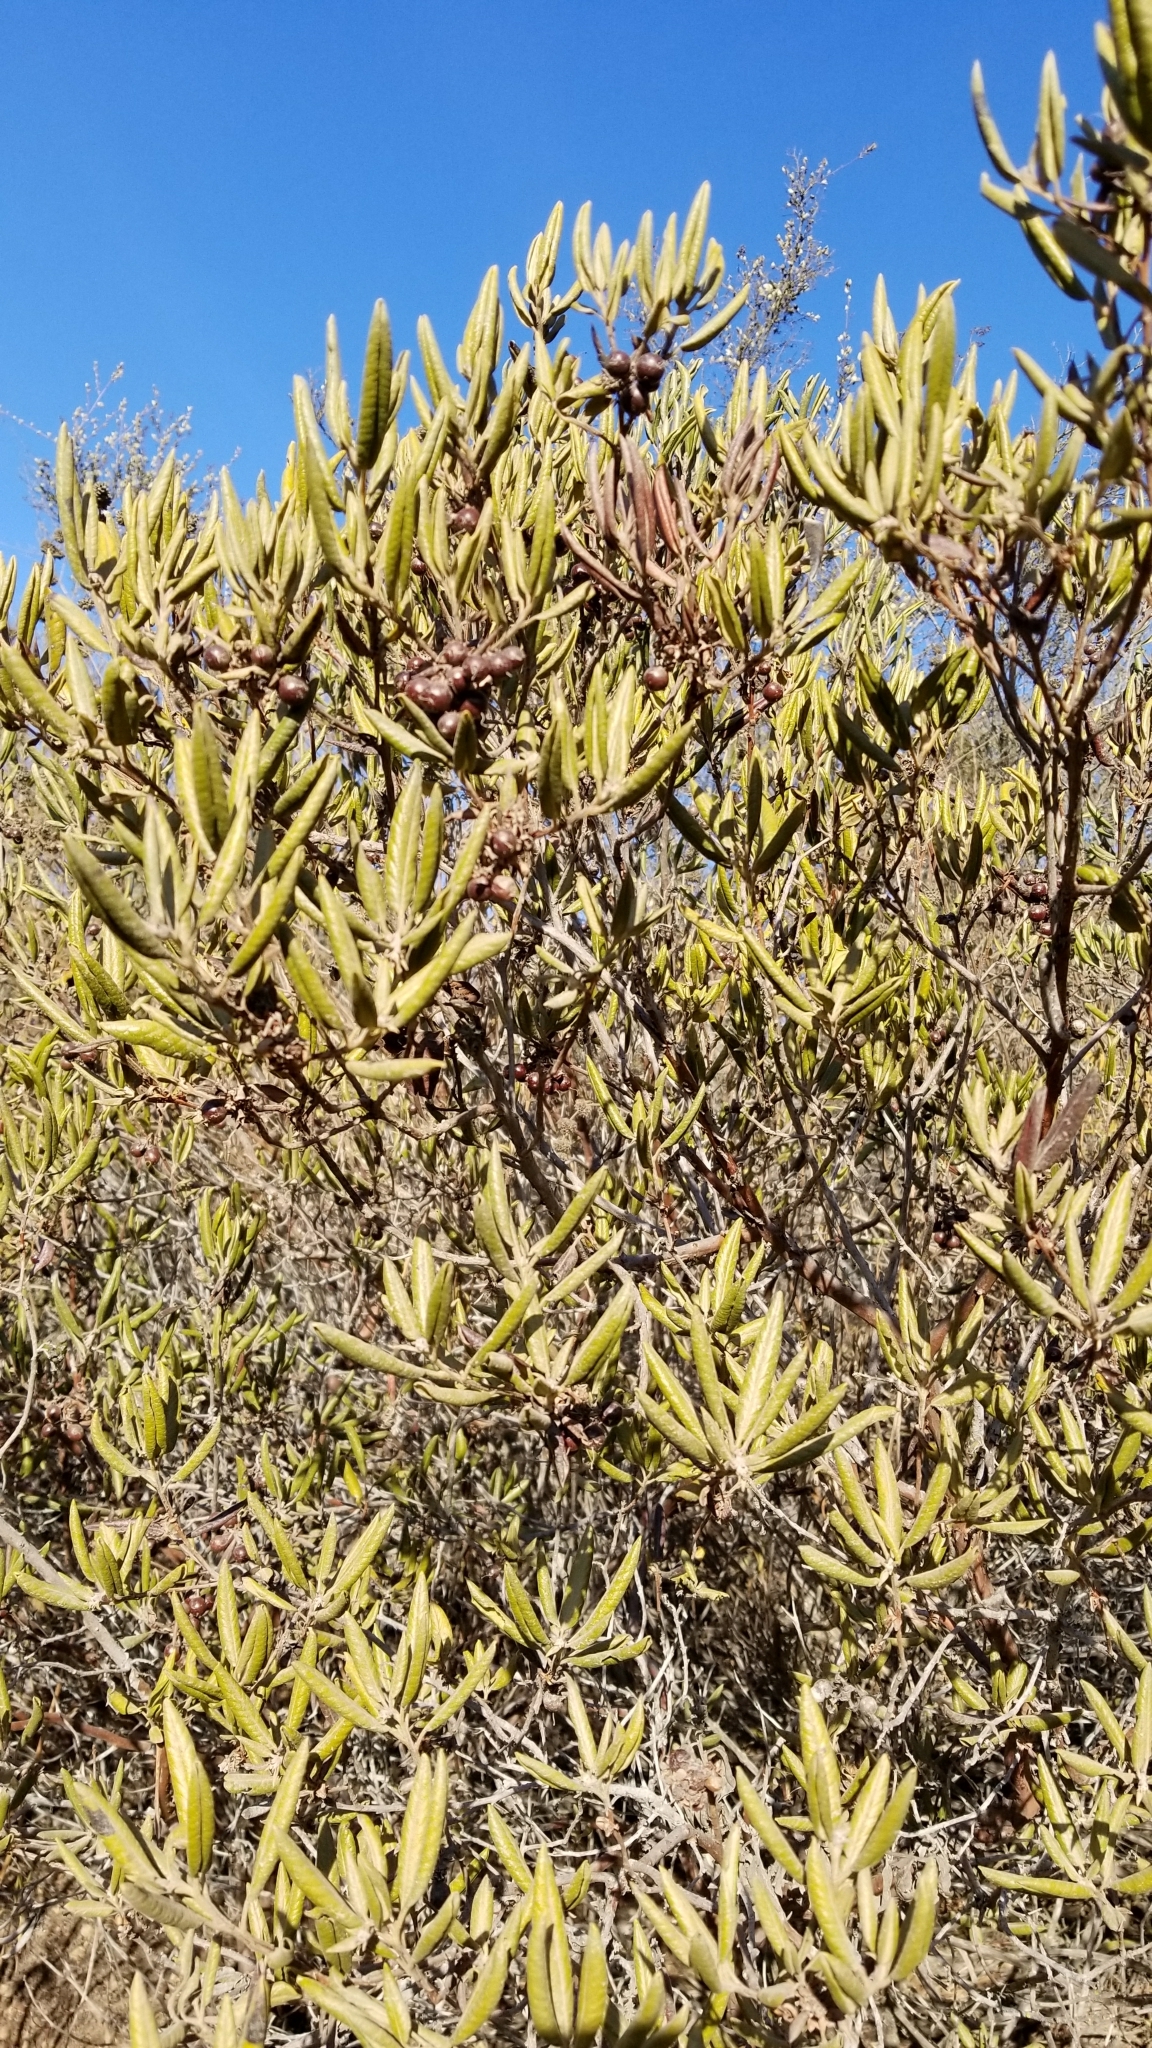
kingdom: Plantae
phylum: Tracheophyta
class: Magnoliopsida
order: Ericales
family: Ericaceae
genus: Arctostaphylos
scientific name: Arctostaphylos bicolor
